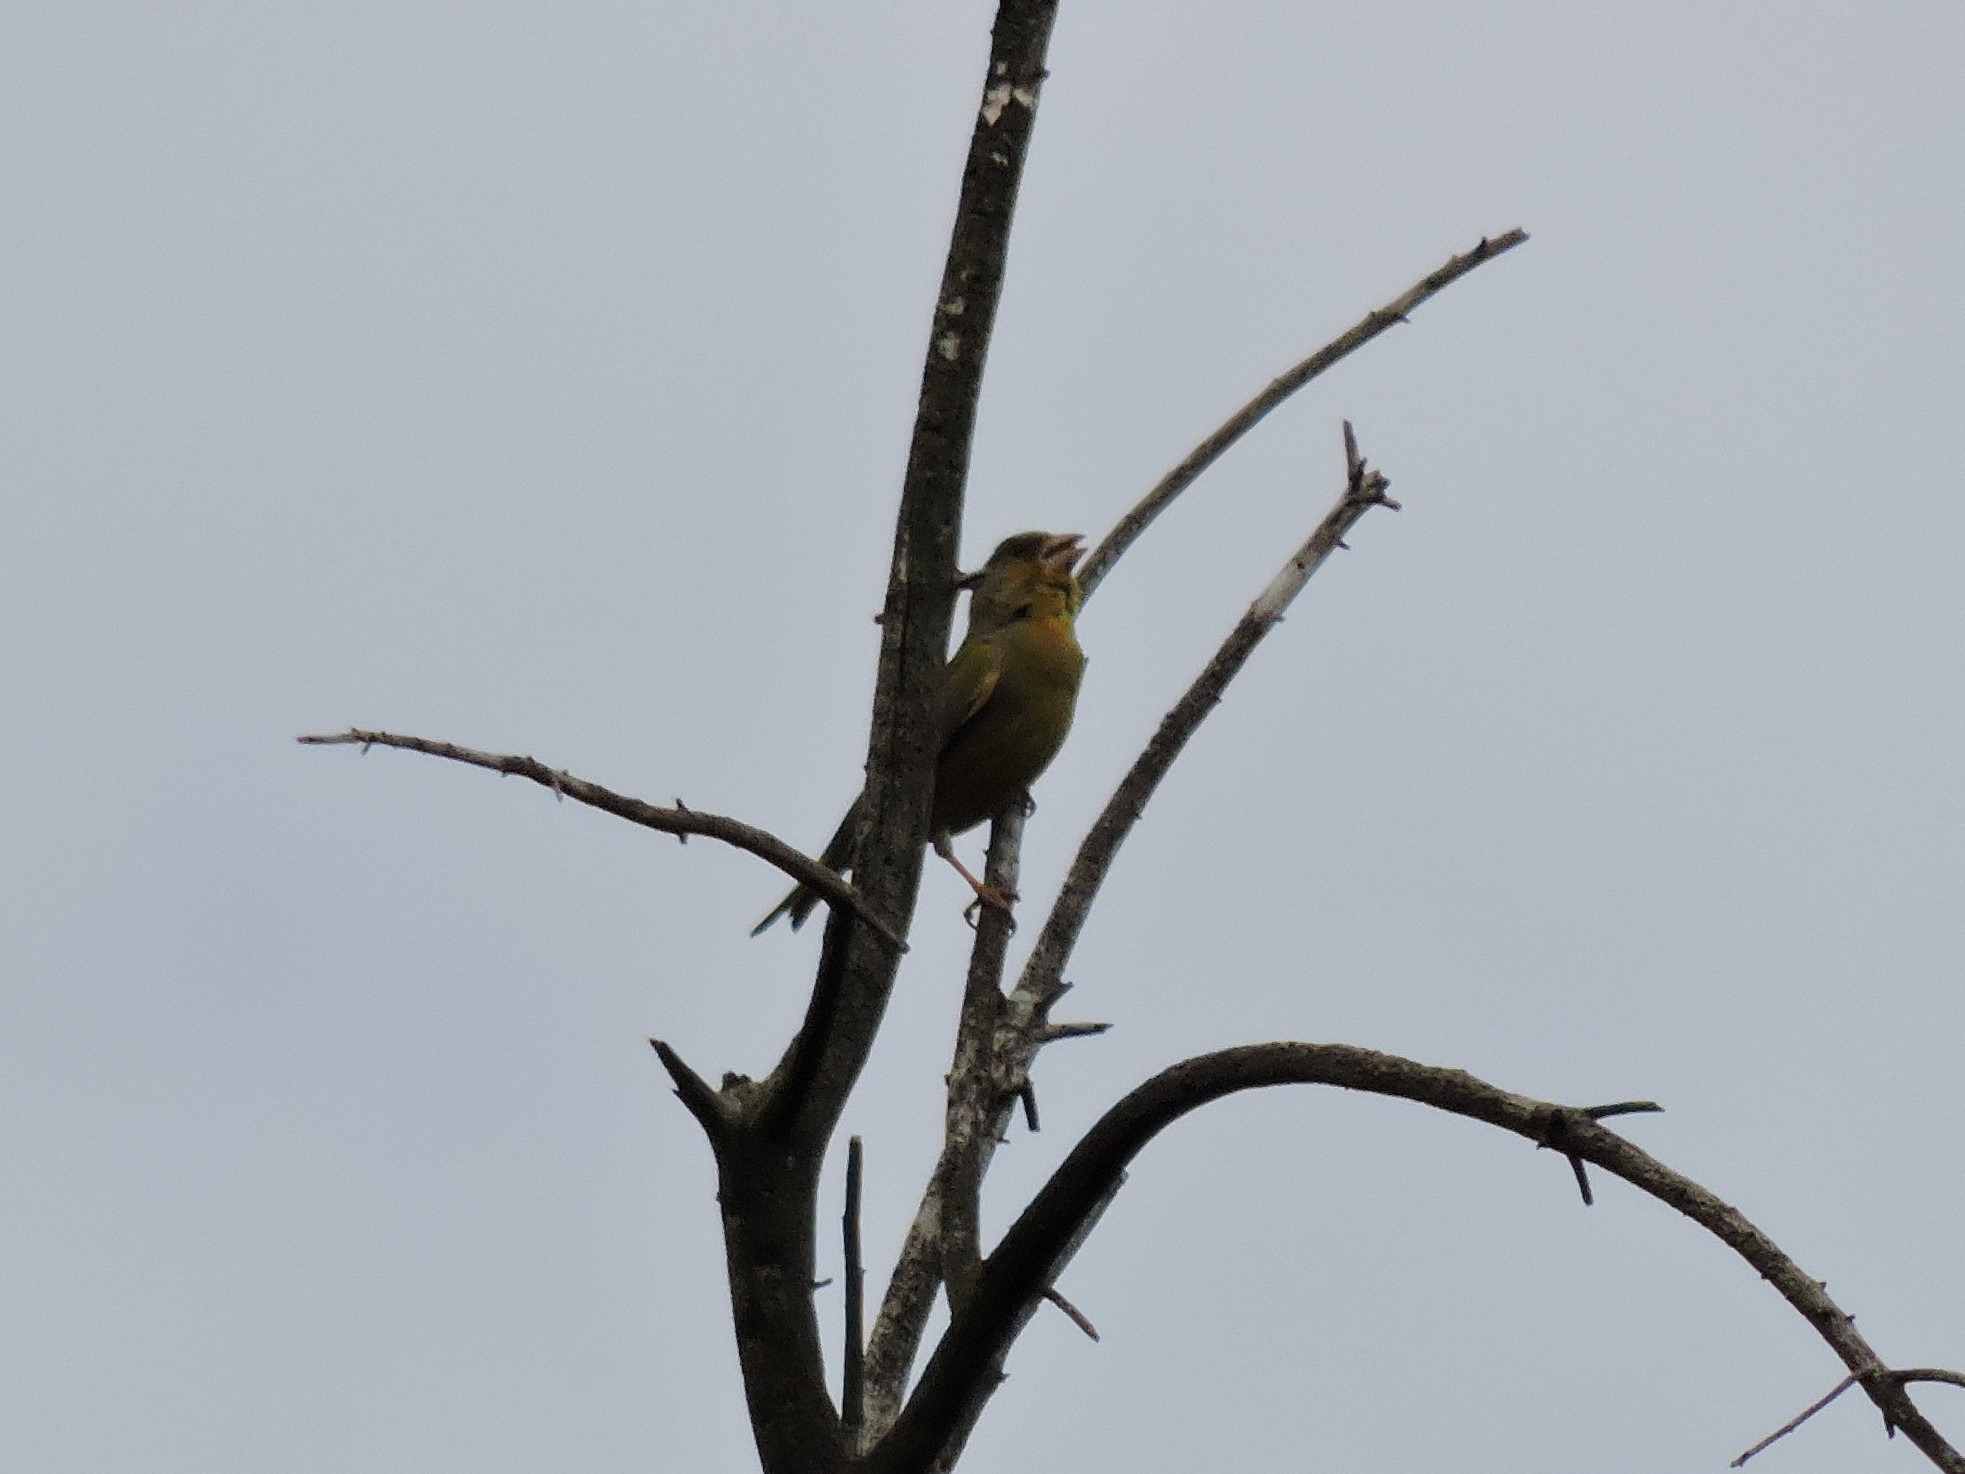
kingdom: Plantae
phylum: Tracheophyta
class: Liliopsida
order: Poales
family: Poaceae
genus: Chloris
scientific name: Chloris chloris
